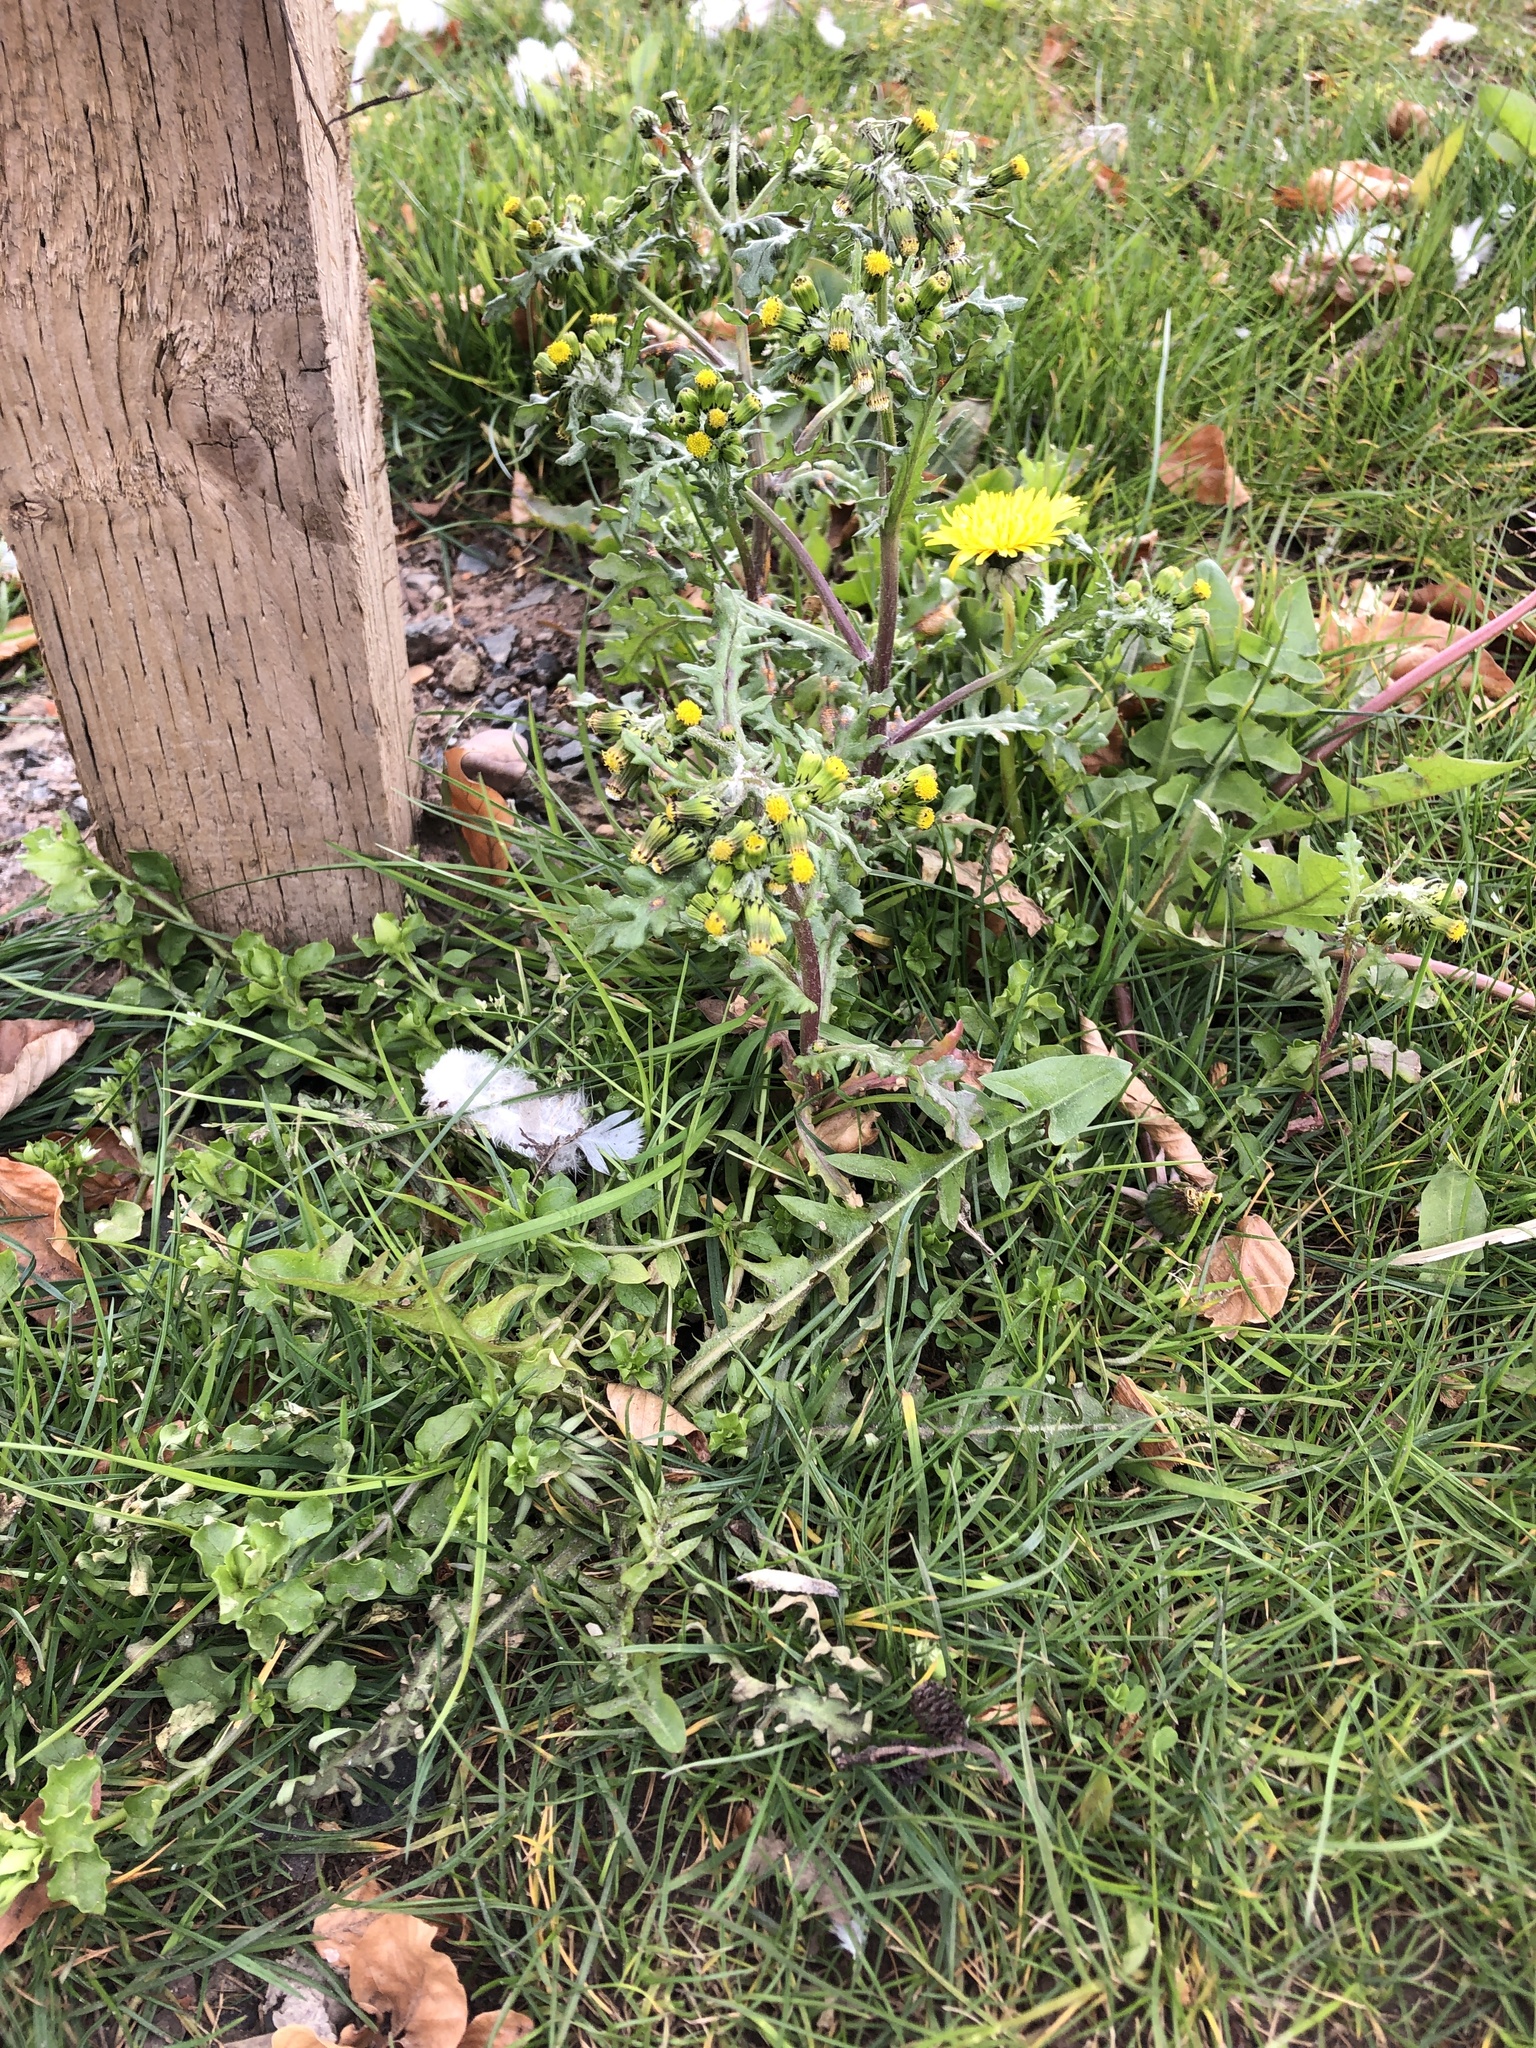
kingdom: Plantae
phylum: Tracheophyta
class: Magnoliopsida
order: Asterales
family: Asteraceae
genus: Senecio
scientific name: Senecio vulgaris
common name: Old-man-in-the-spring
